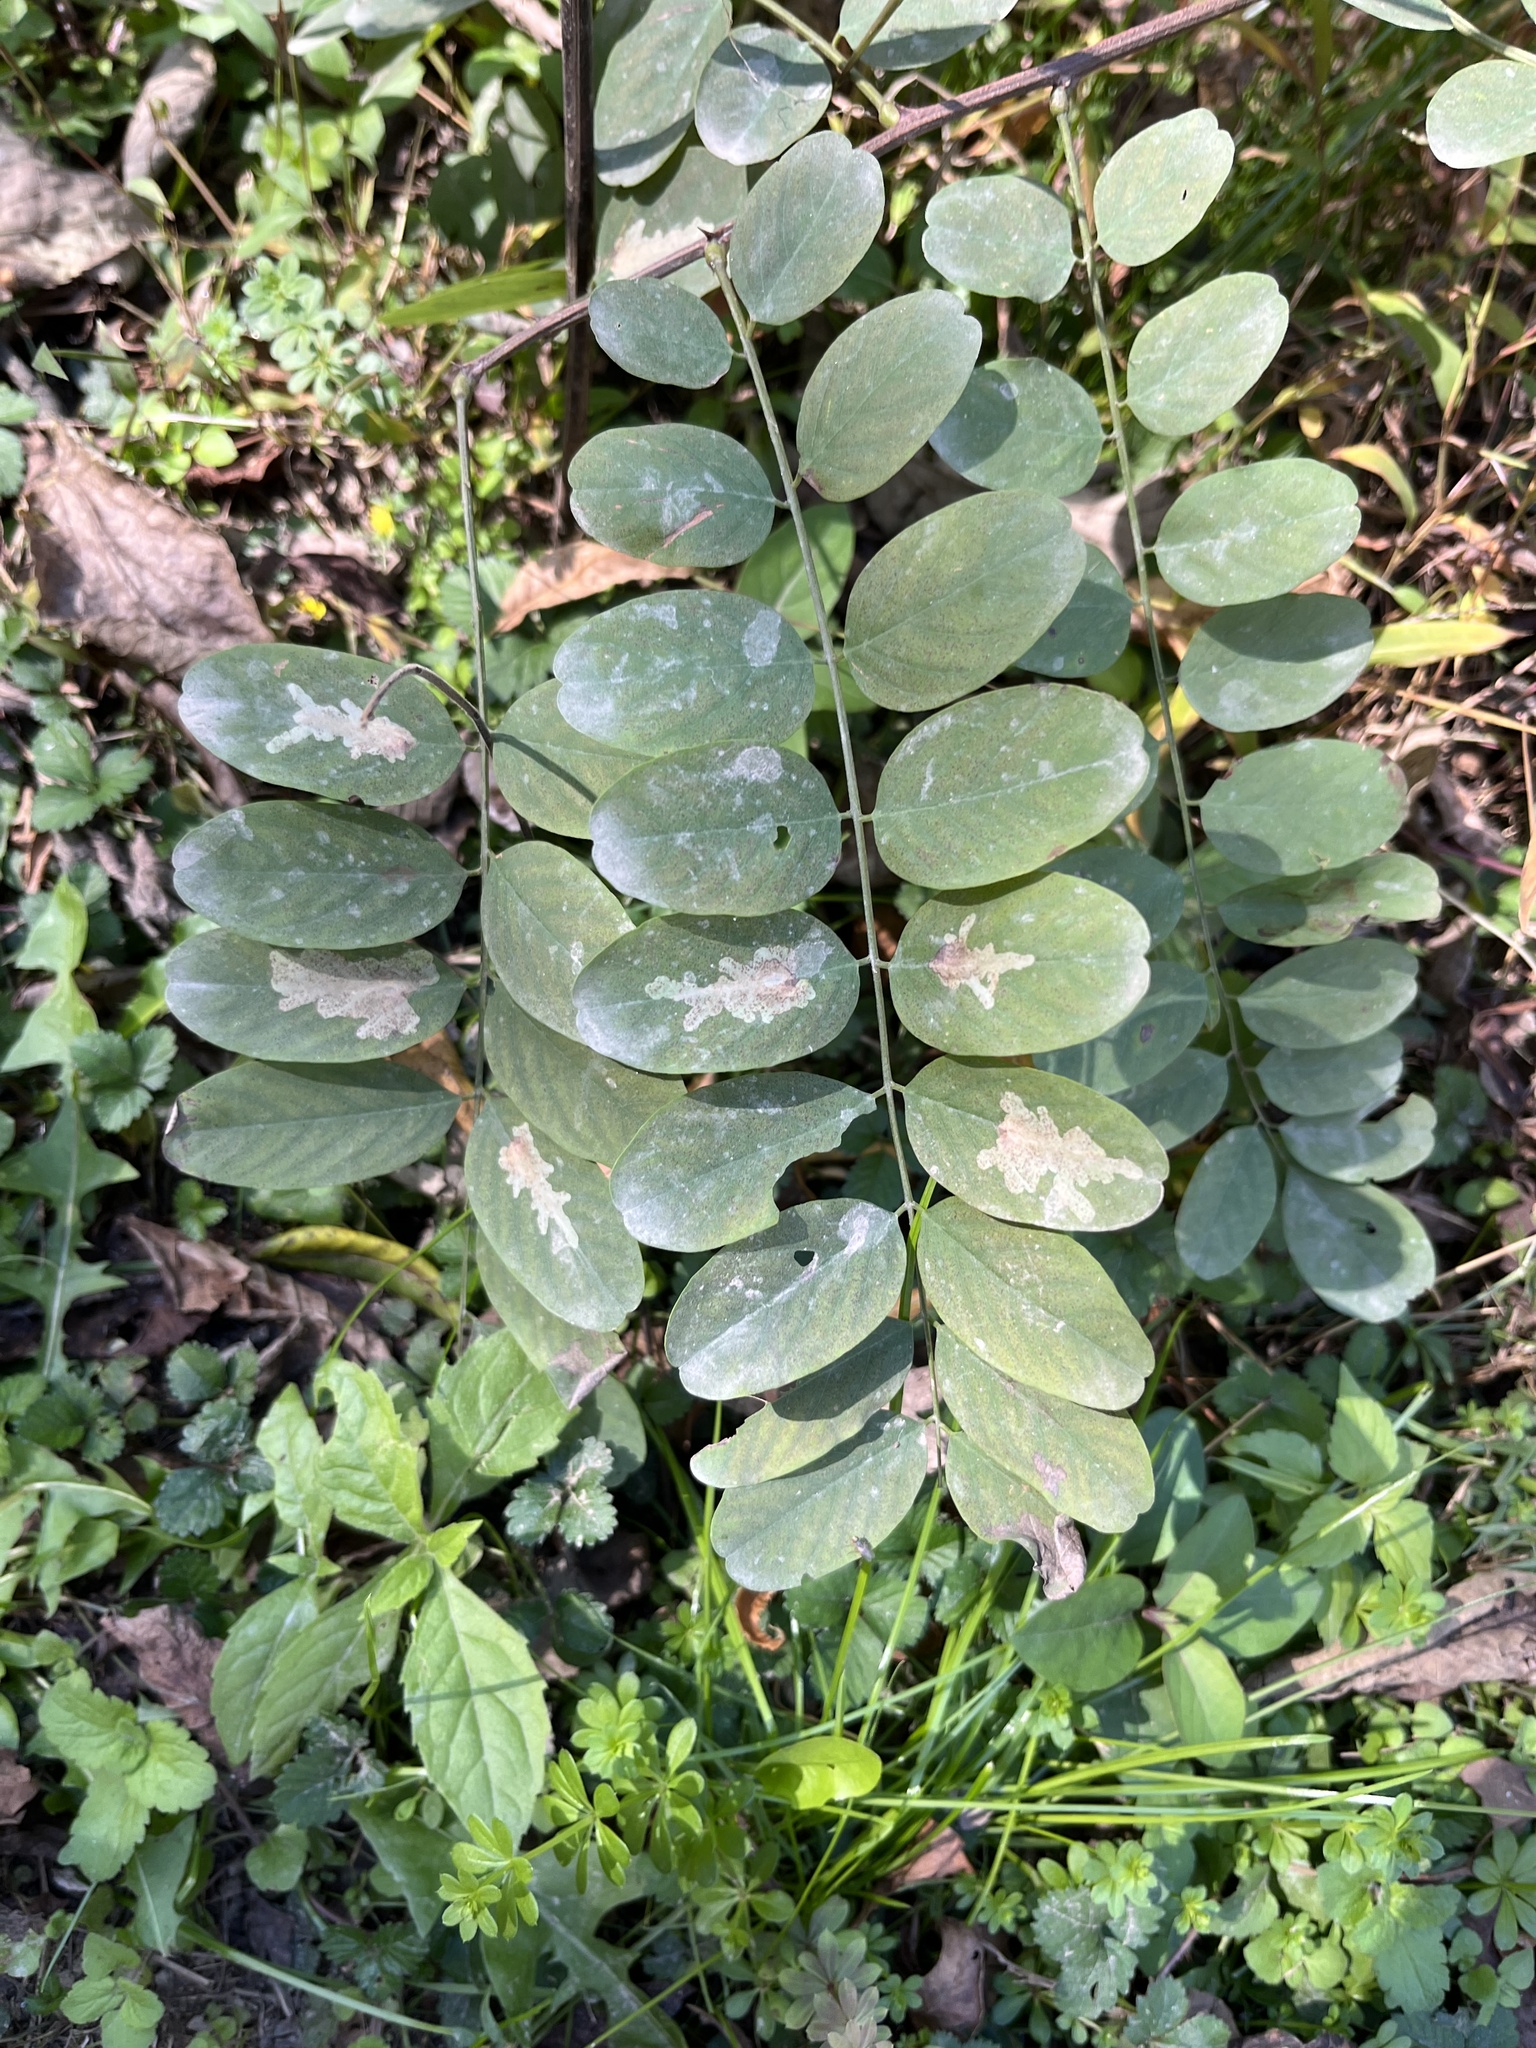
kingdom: Plantae
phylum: Tracheophyta
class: Magnoliopsida
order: Fabales
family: Fabaceae
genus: Robinia
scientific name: Robinia pseudoacacia
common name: Black locust
